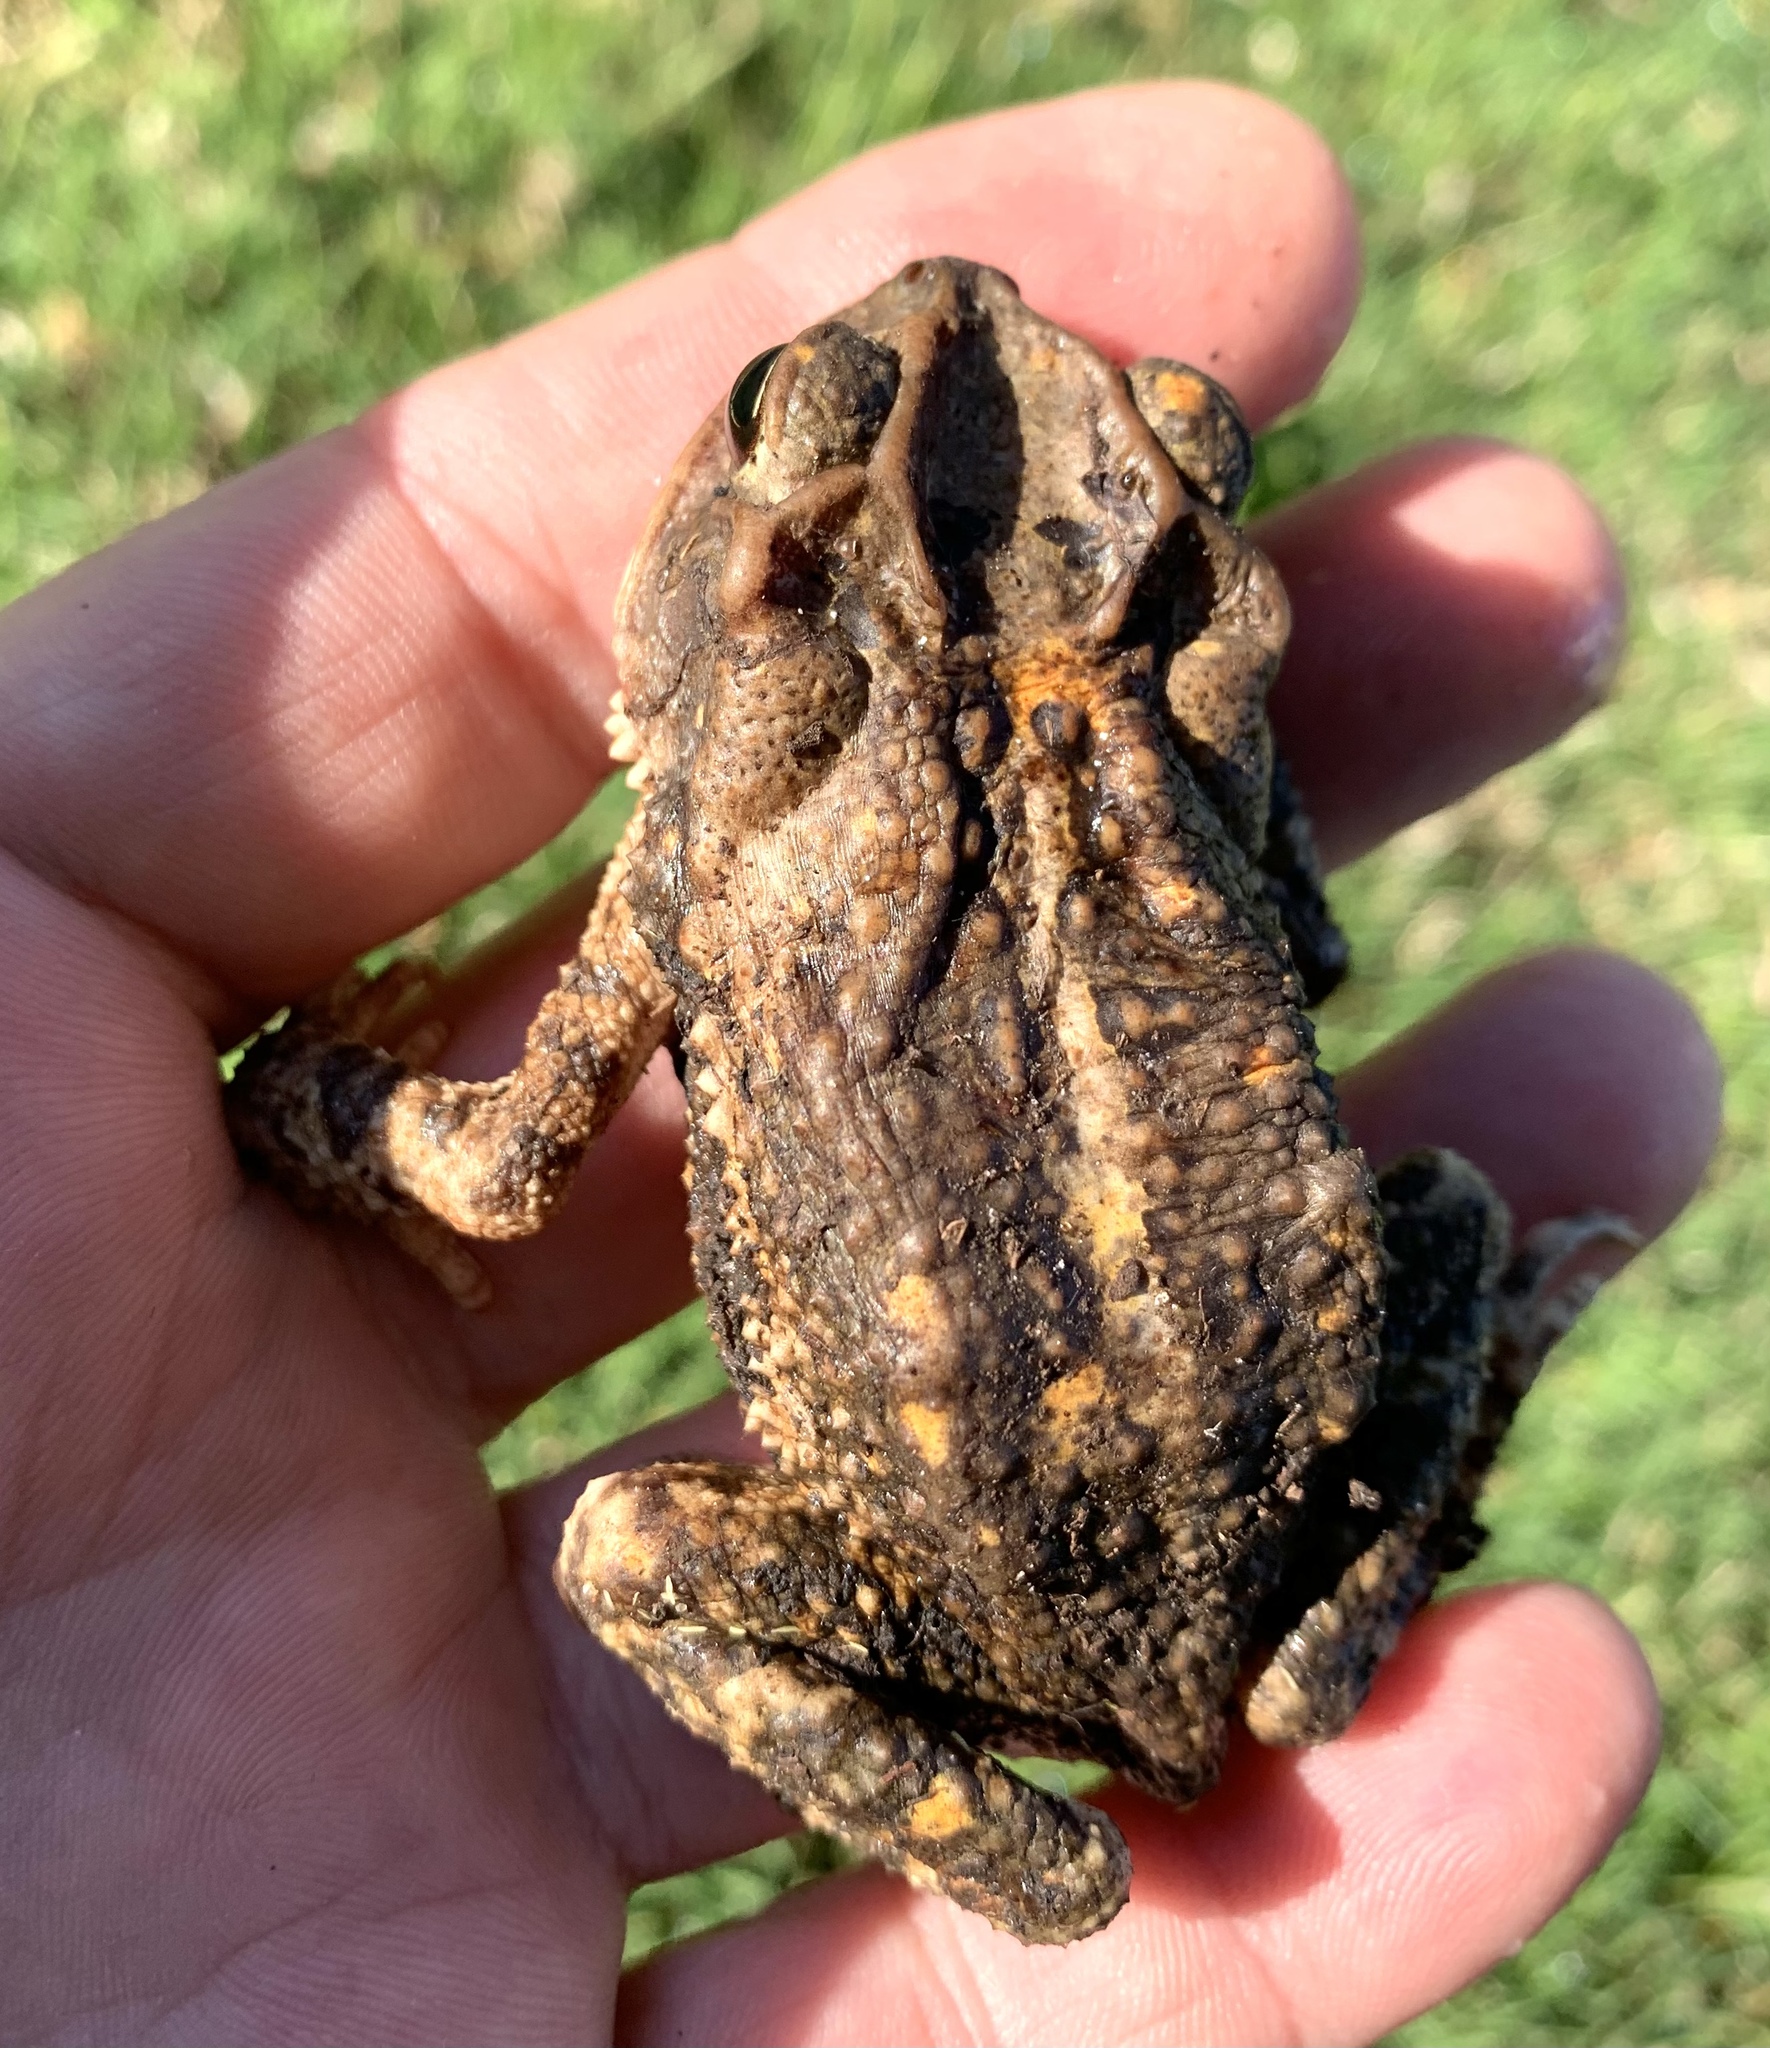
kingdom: Animalia
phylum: Chordata
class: Amphibia
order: Anura
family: Bufonidae
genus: Incilius
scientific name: Incilius nebulifer
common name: Gulf coast toad
